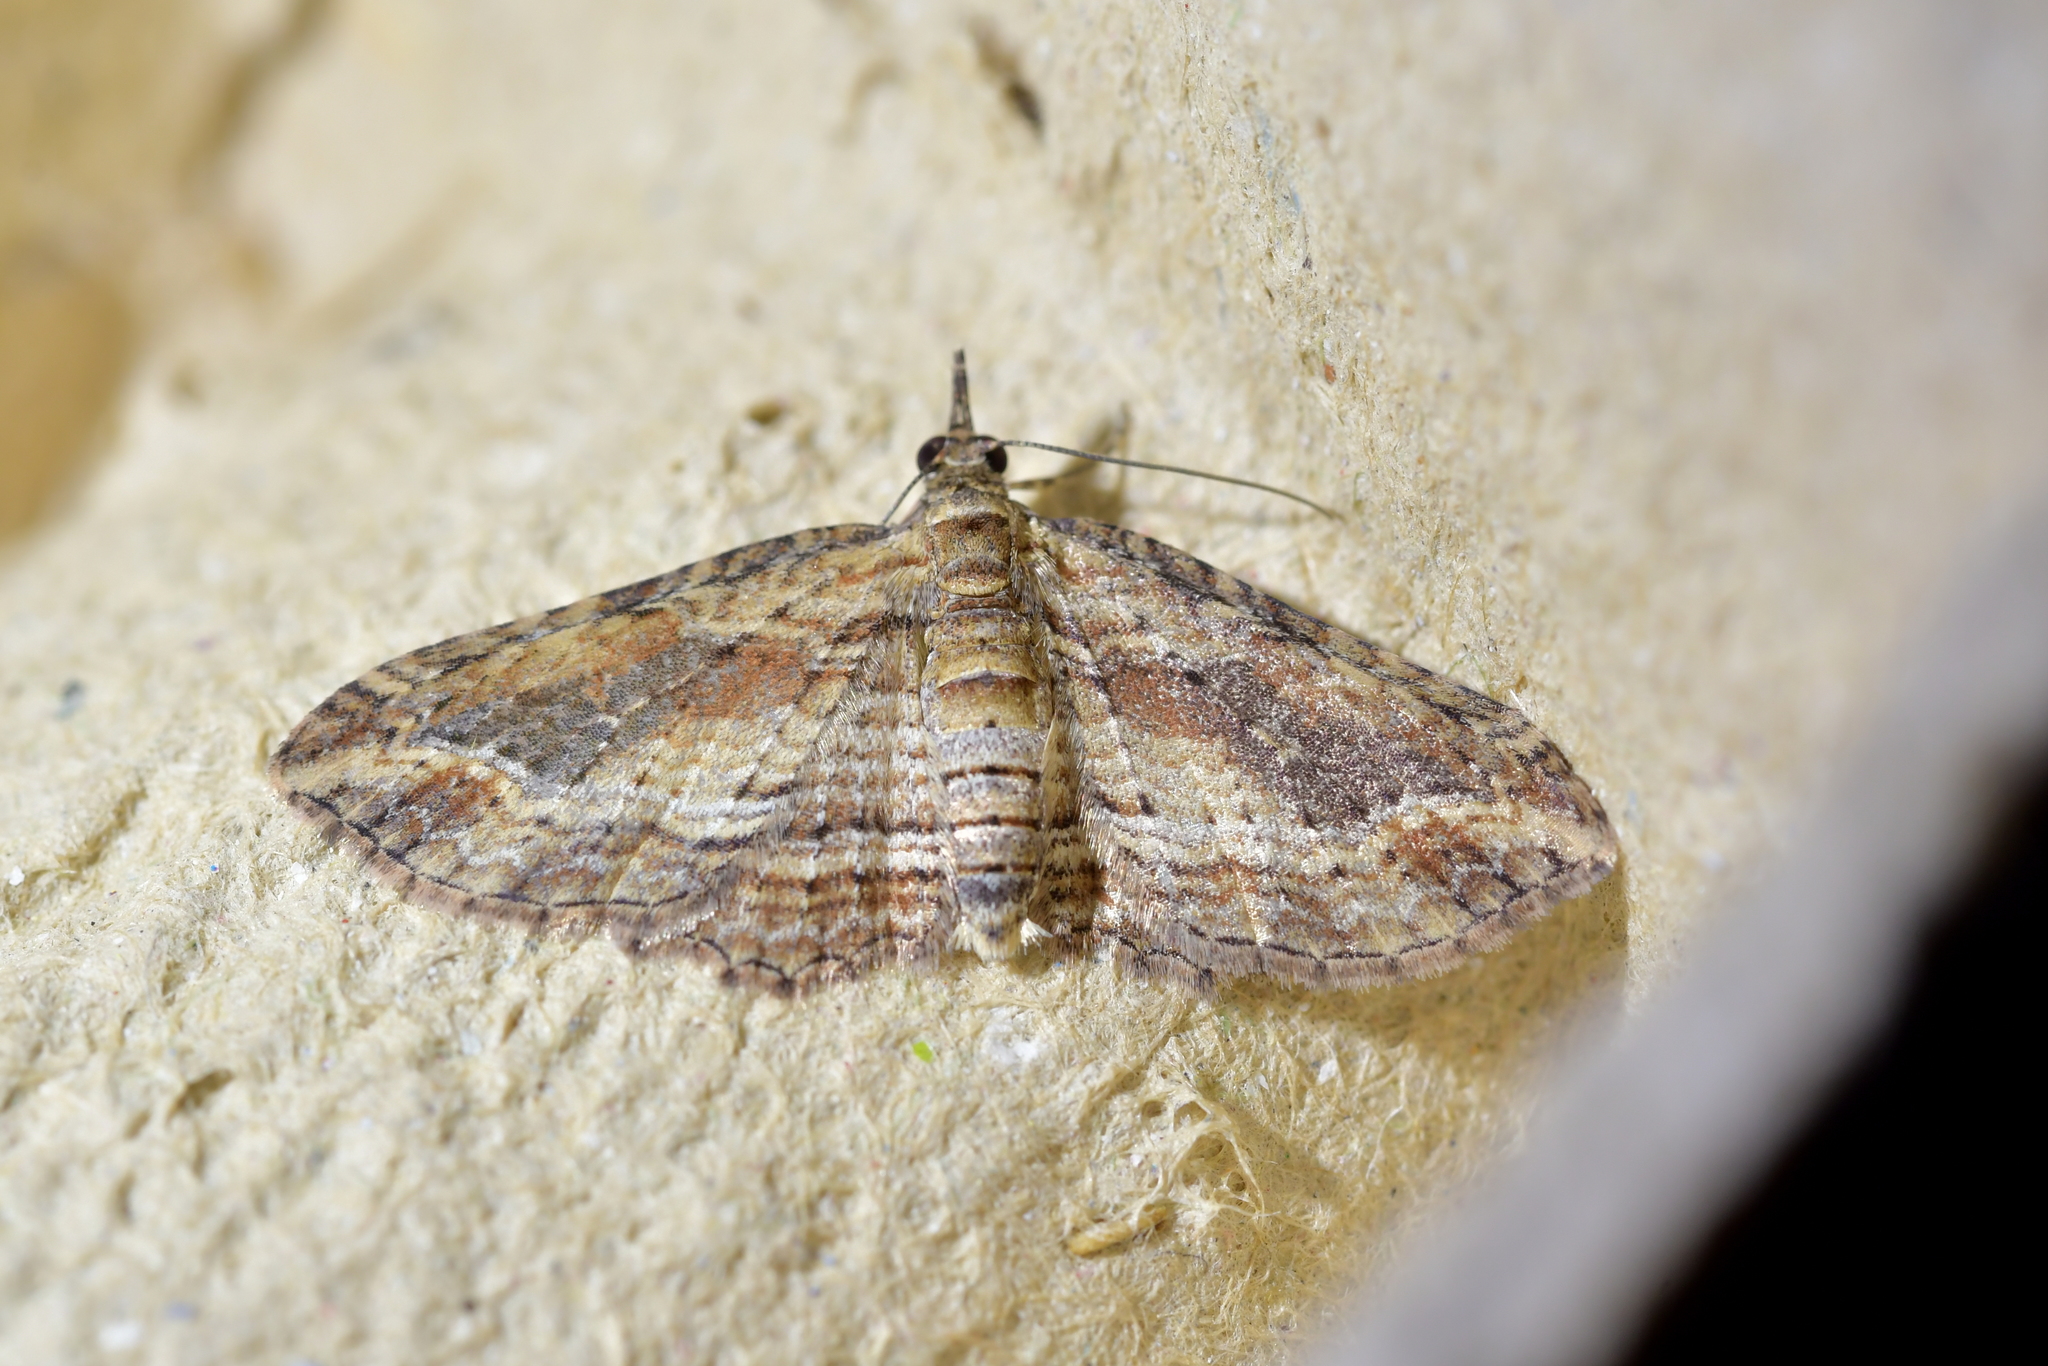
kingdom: Animalia
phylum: Arthropoda
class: Insecta
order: Lepidoptera
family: Geometridae
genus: Chloroclystis
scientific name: Chloroclystis filata
